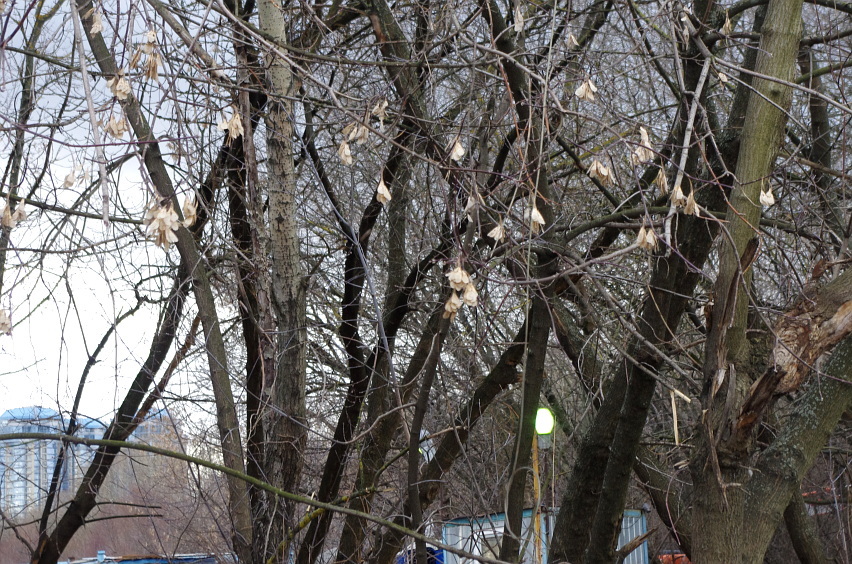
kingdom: Plantae
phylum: Tracheophyta
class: Magnoliopsida
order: Sapindales
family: Sapindaceae
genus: Acer
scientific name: Acer negundo
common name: Ashleaf maple
